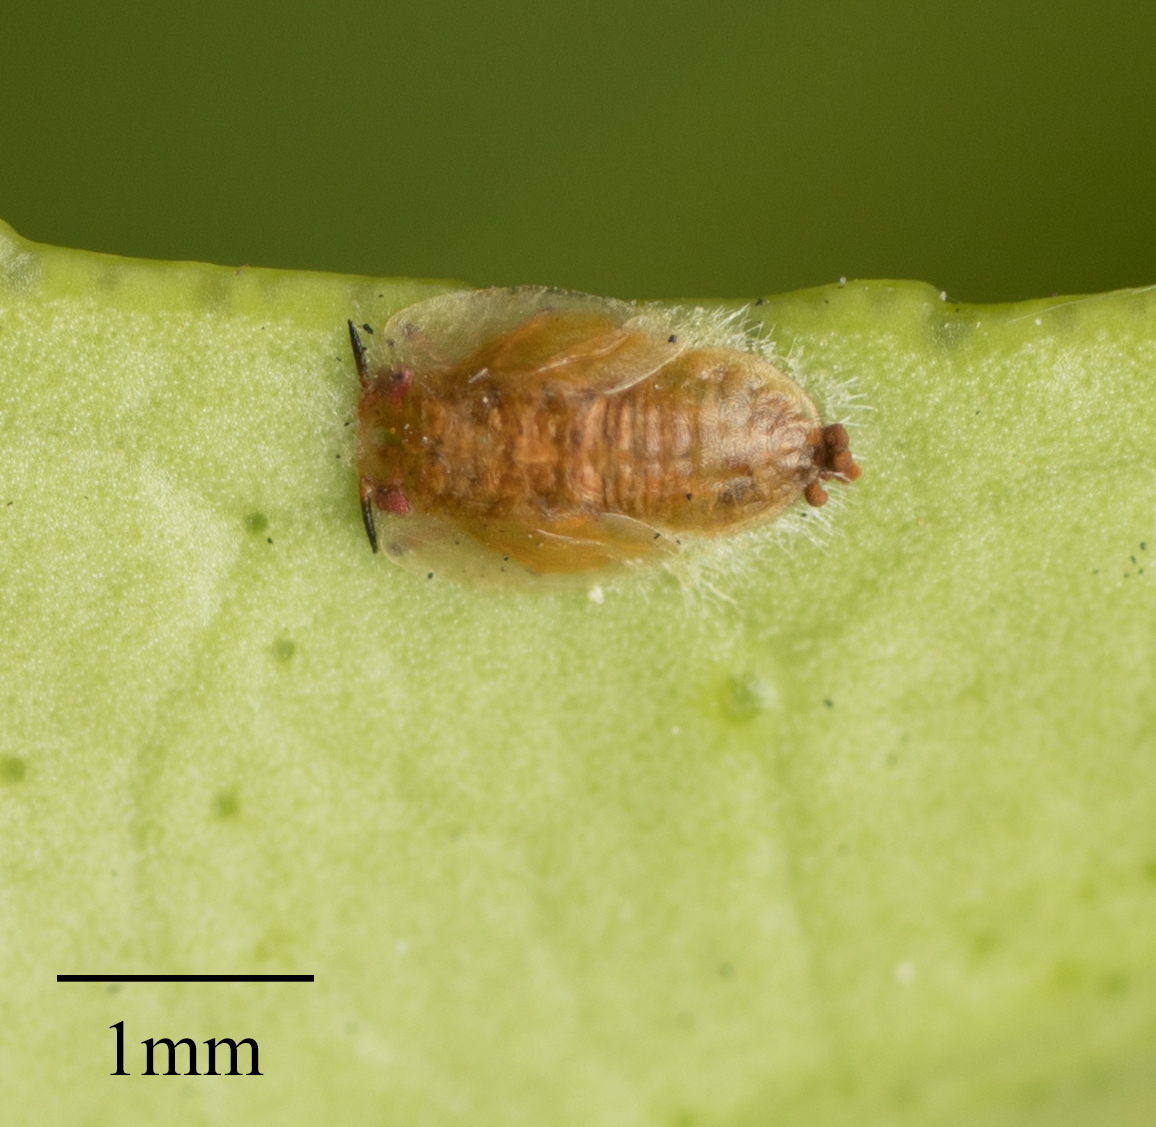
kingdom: Animalia
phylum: Arthropoda
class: Insecta
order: Hemiptera
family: Liviidae
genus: Diaphorina
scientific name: Diaphorina citri
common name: Asian citrus psyllid
